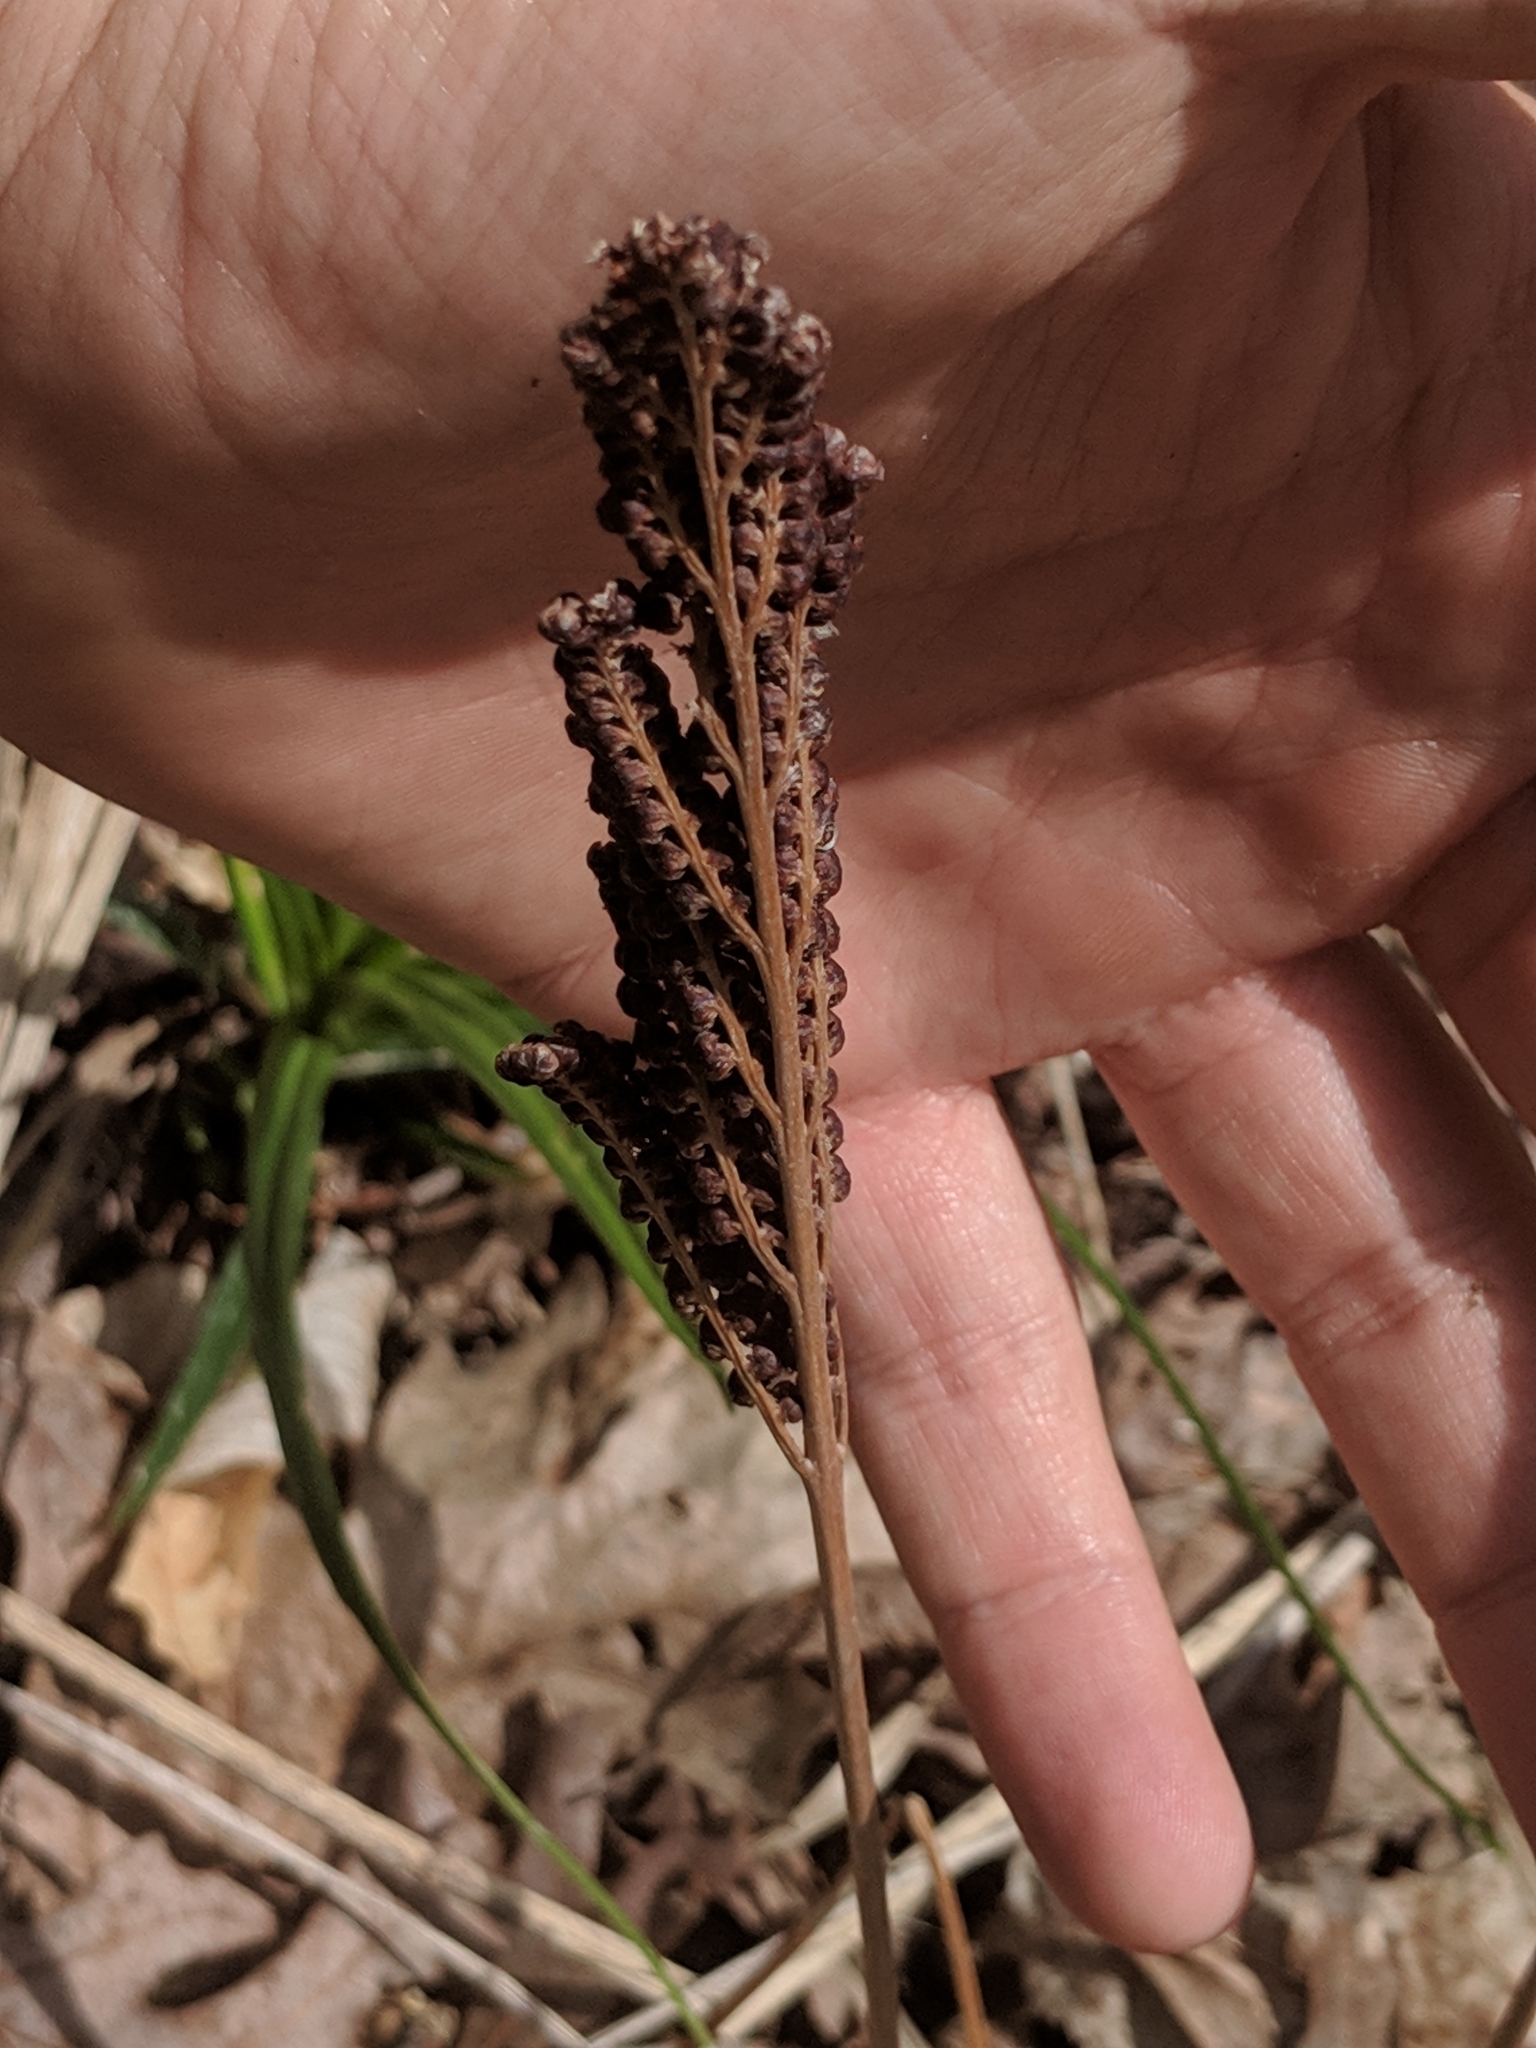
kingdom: Plantae
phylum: Tracheophyta
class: Polypodiopsida
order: Polypodiales
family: Onocleaceae
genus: Onoclea
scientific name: Onoclea sensibilis
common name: Sensitive fern
